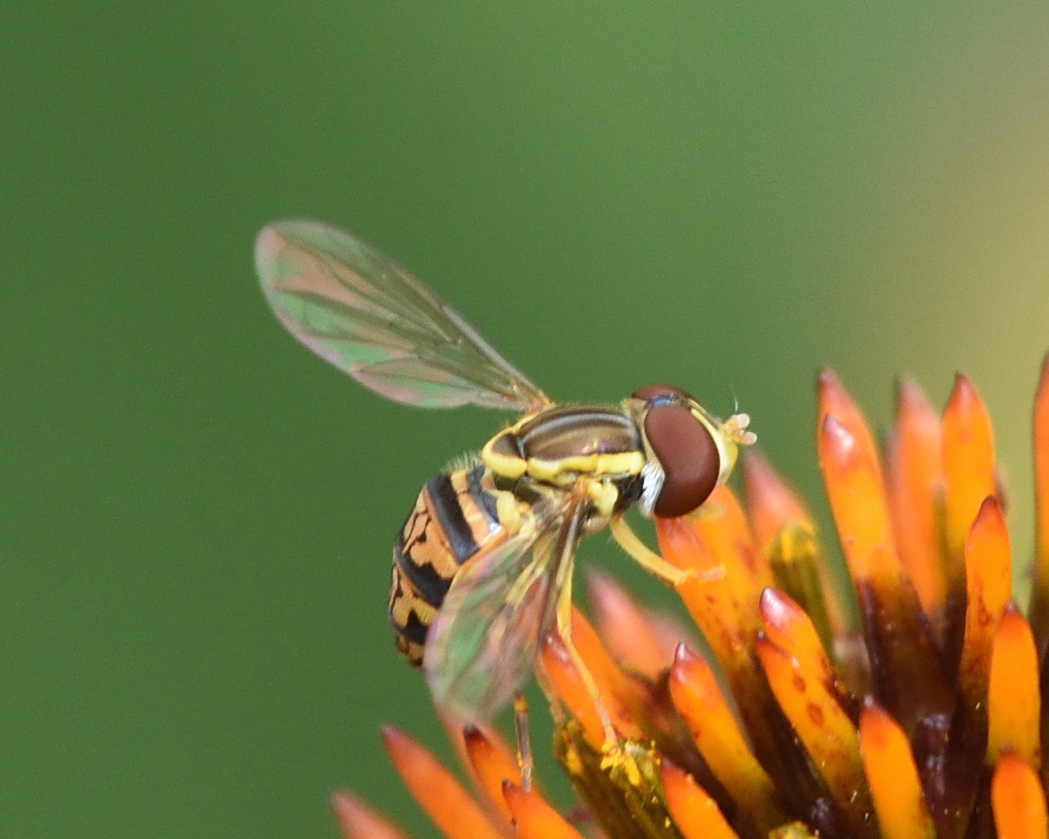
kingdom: Animalia
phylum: Arthropoda
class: Insecta
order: Diptera
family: Syrphidae
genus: Toxomerus
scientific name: Toxomerus geminatus
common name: Eastern calligrapher
